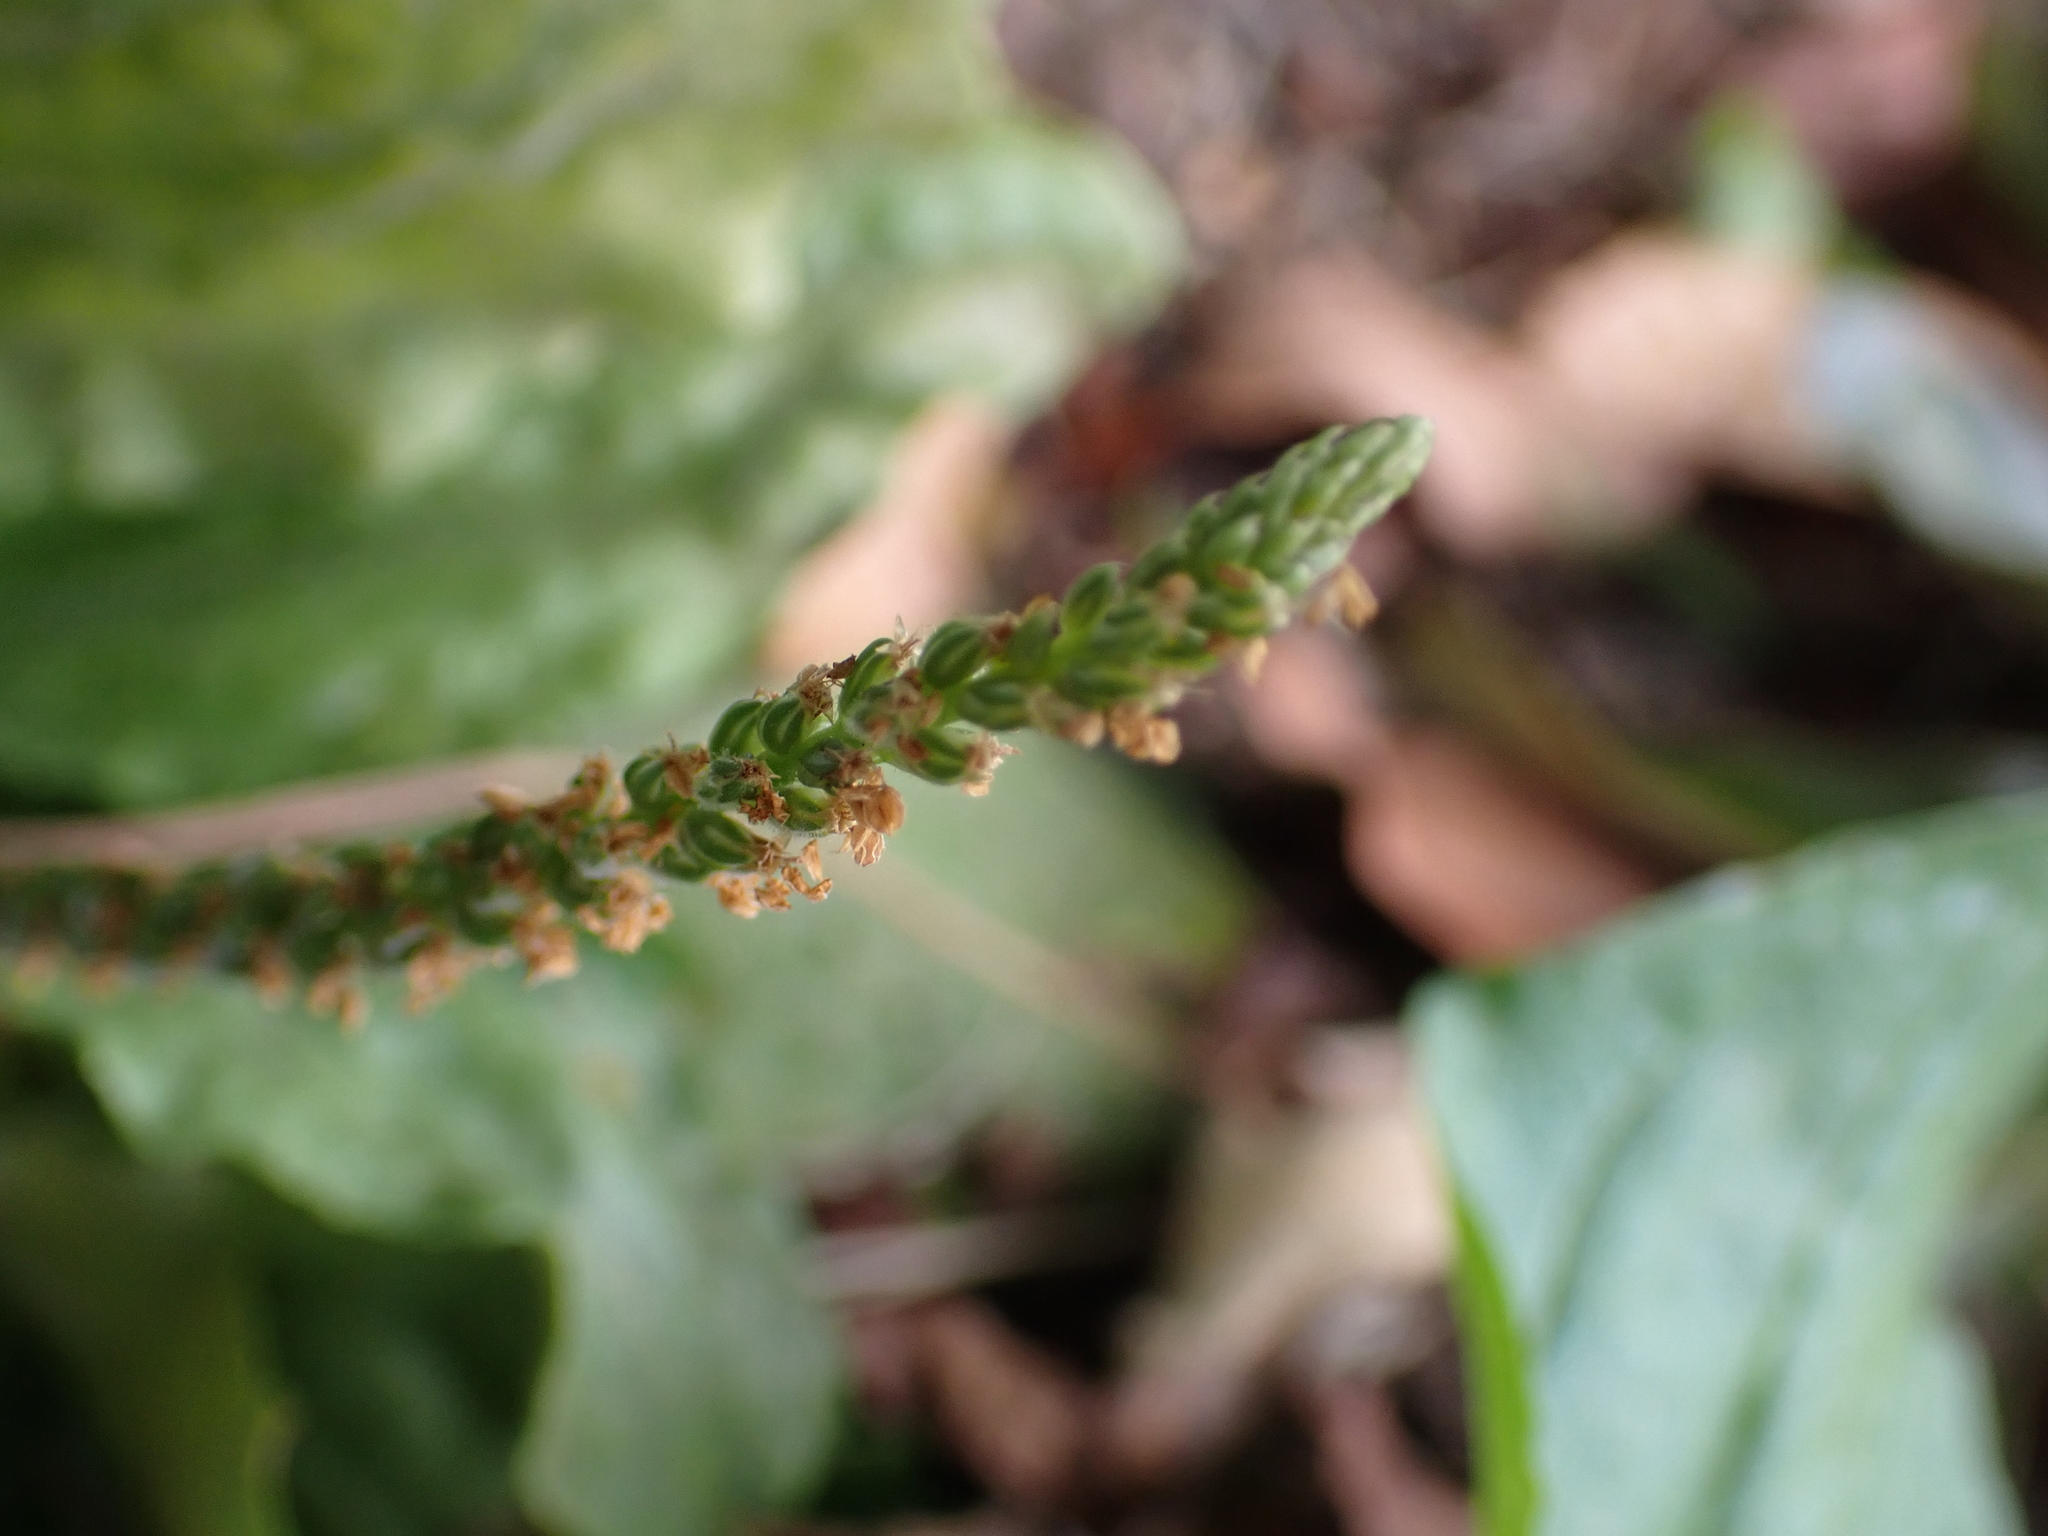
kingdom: Plantae
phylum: Tracheophyta
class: Magnoliopsida
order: Lamiales
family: Plantaginaceae
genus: Plantago
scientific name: Plantago rugelii
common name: American plantain
